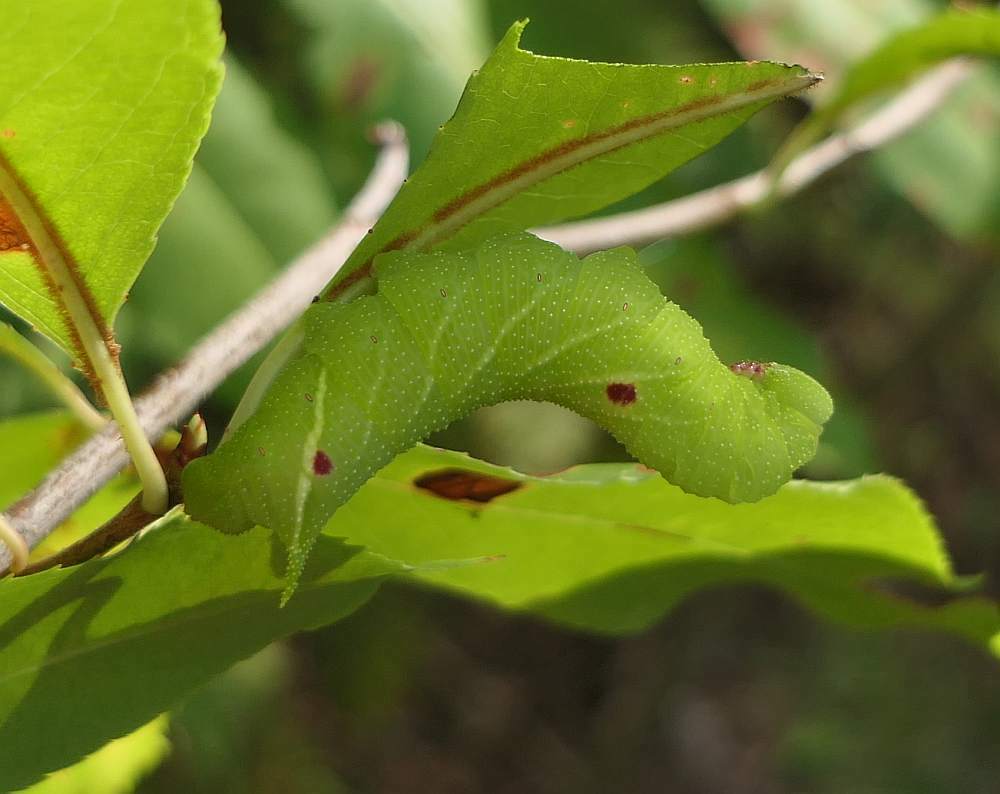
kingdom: Animalia
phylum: Arthropoda
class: Insecta
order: Lepidoptera
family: Sphingidae
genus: Paonias
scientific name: Paonias myops
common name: Small-eyed sphinx
